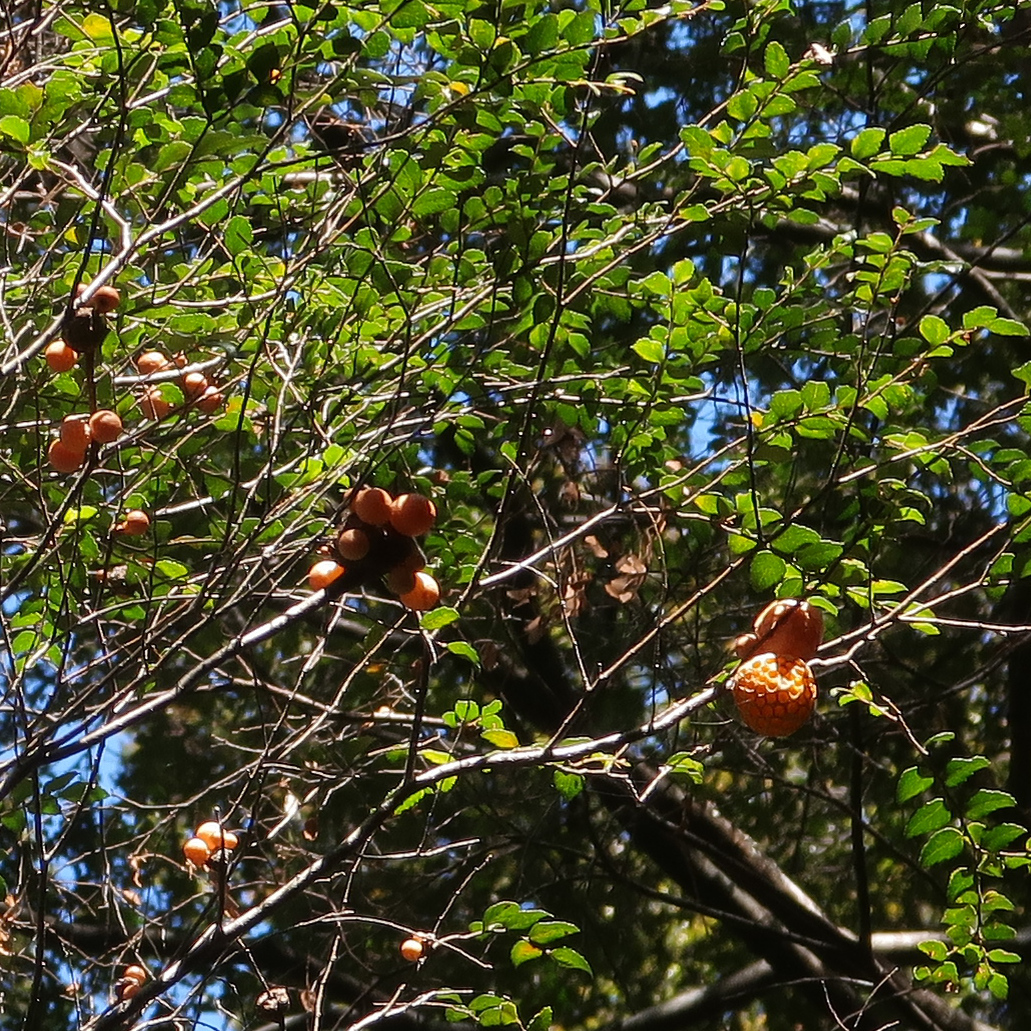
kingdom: Fungi
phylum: Ascomycota
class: Leotiomycetes
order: Cyttariales
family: Cyttariaceae
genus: Cyttaria
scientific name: Cyttaria gunnii
